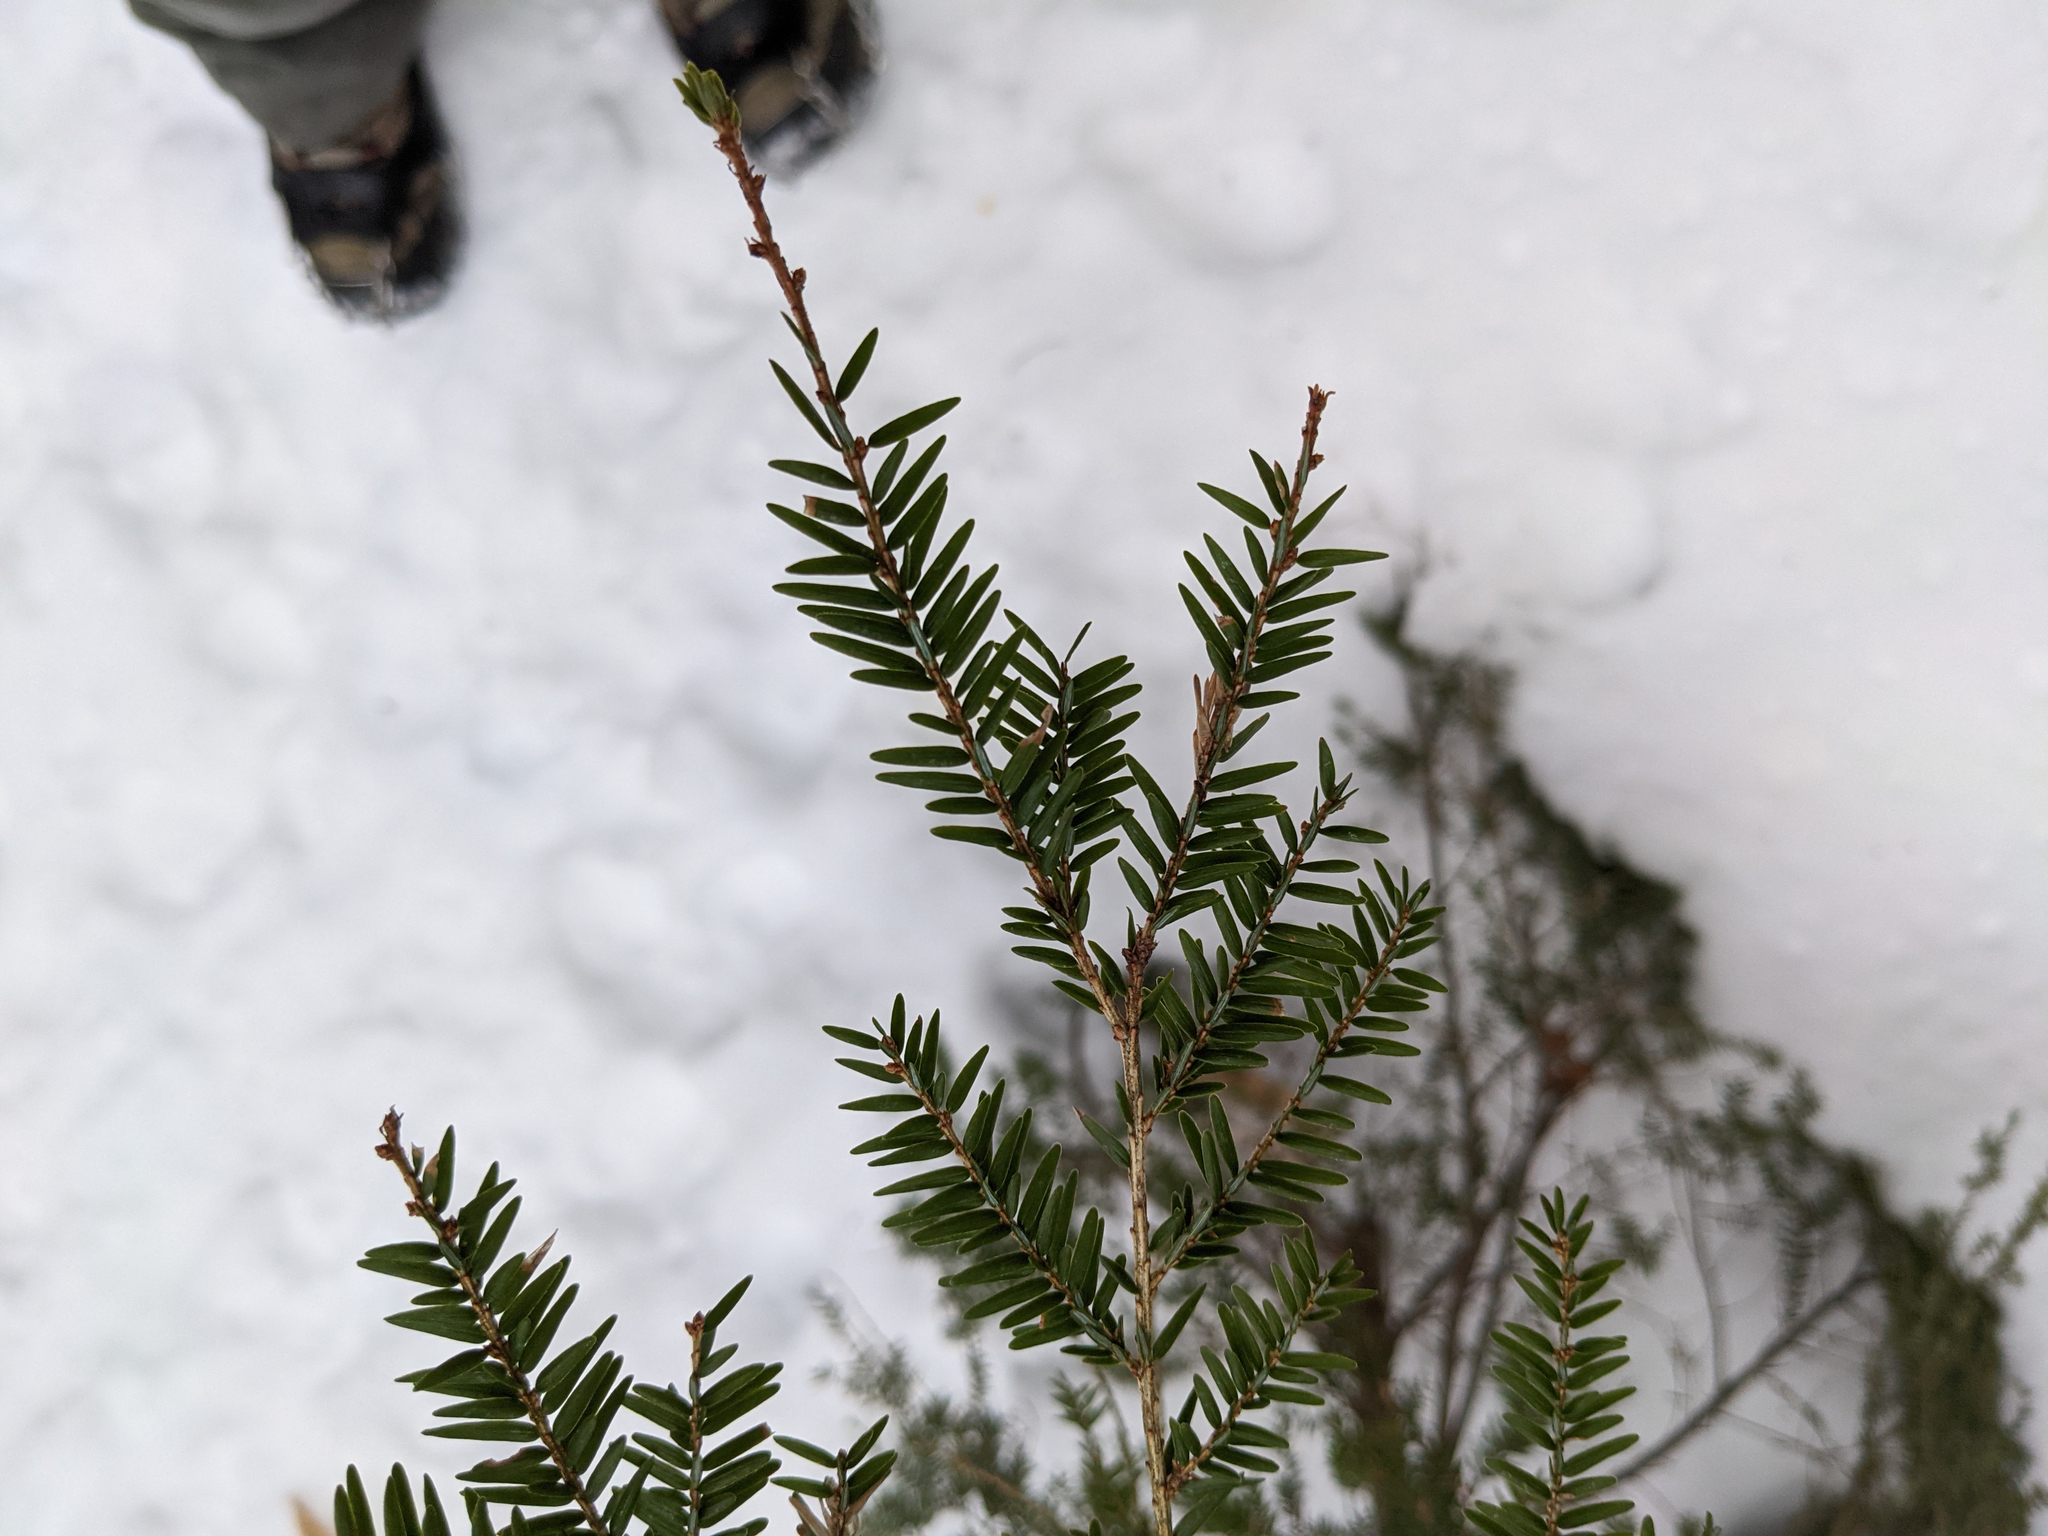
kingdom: Plantae
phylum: Tracheophyta
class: Pinopsida
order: Pinales
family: Pinaceae
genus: Tsuga
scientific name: Tsuga canadensis
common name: Eastern hemlock
